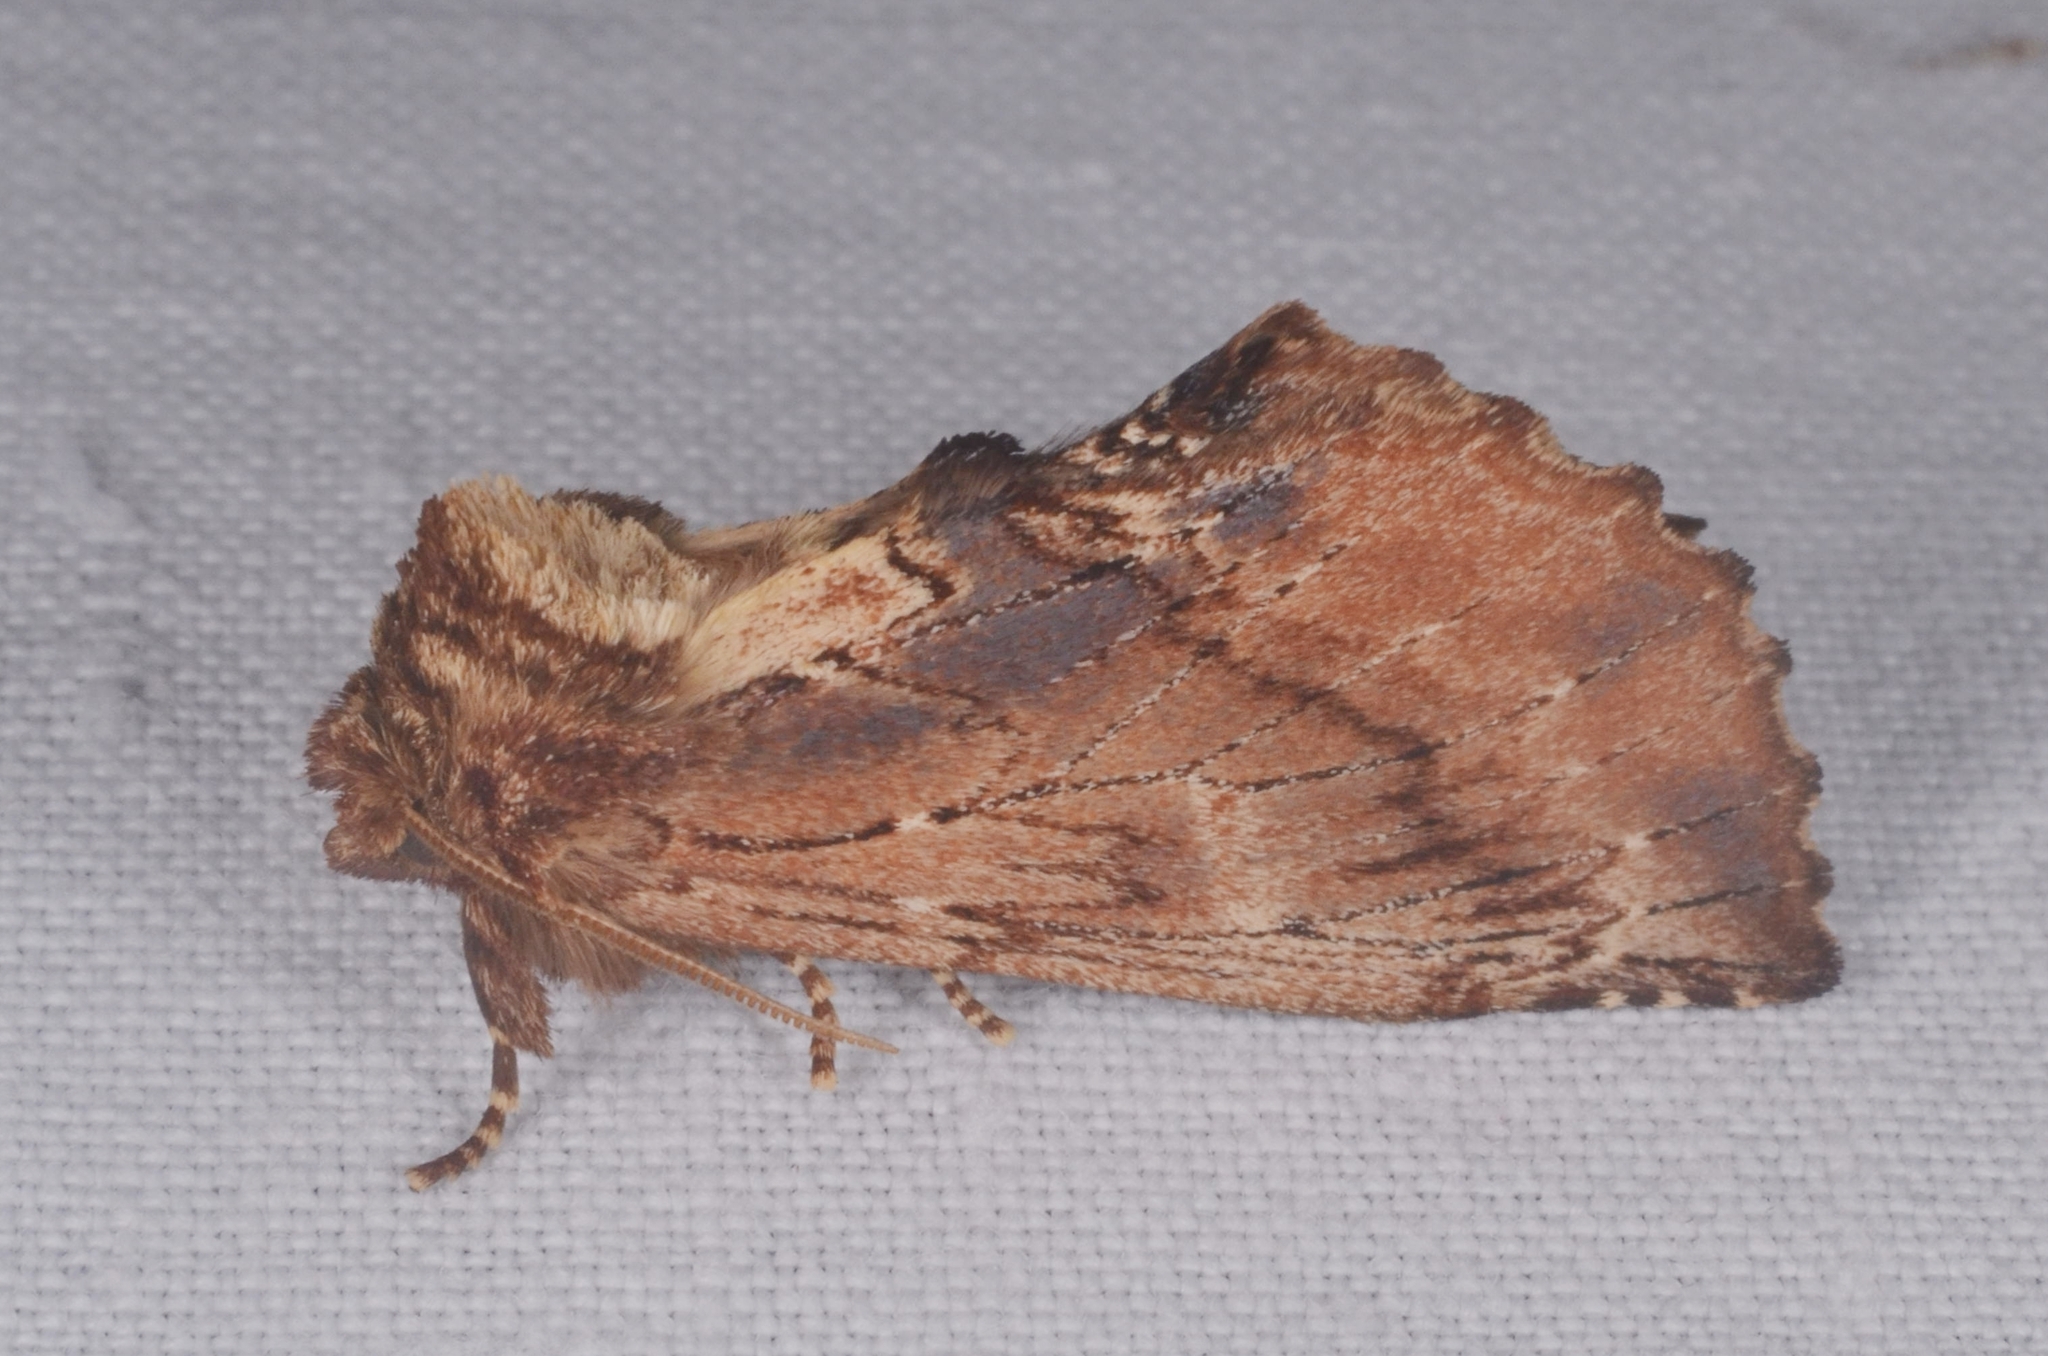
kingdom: Animalia
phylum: Arthropoda
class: Insecta
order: Lepidoptera
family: Notodontidae
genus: Ptilodon
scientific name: Ptilodon capucina
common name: Coxcomb prominent
